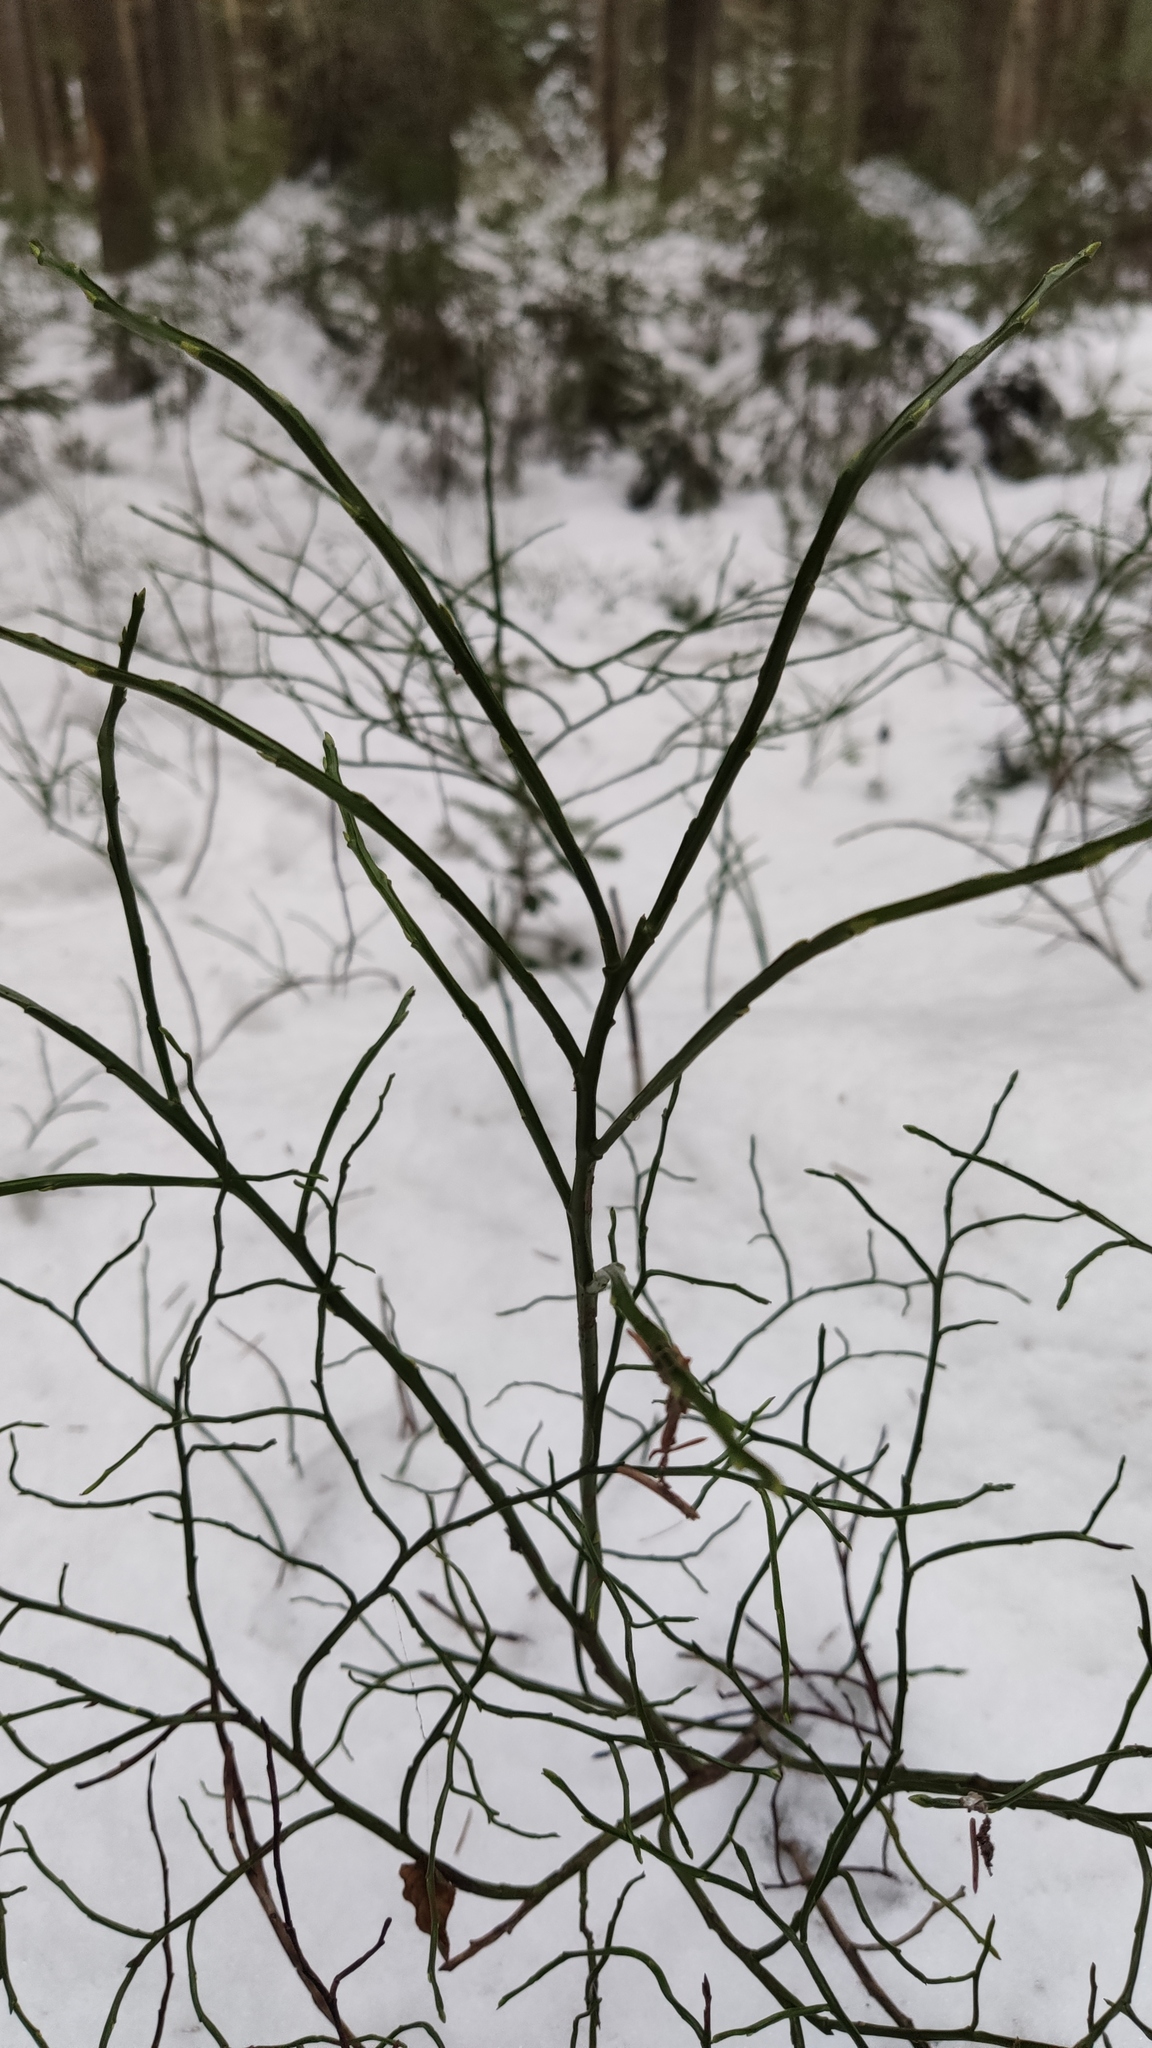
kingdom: Plantae
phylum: Tracheophyta
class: Magnoliopsida
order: Ericales
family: Ericaceae
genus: Vaccinium
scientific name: Vaccinium myrtillus
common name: Bilberry
